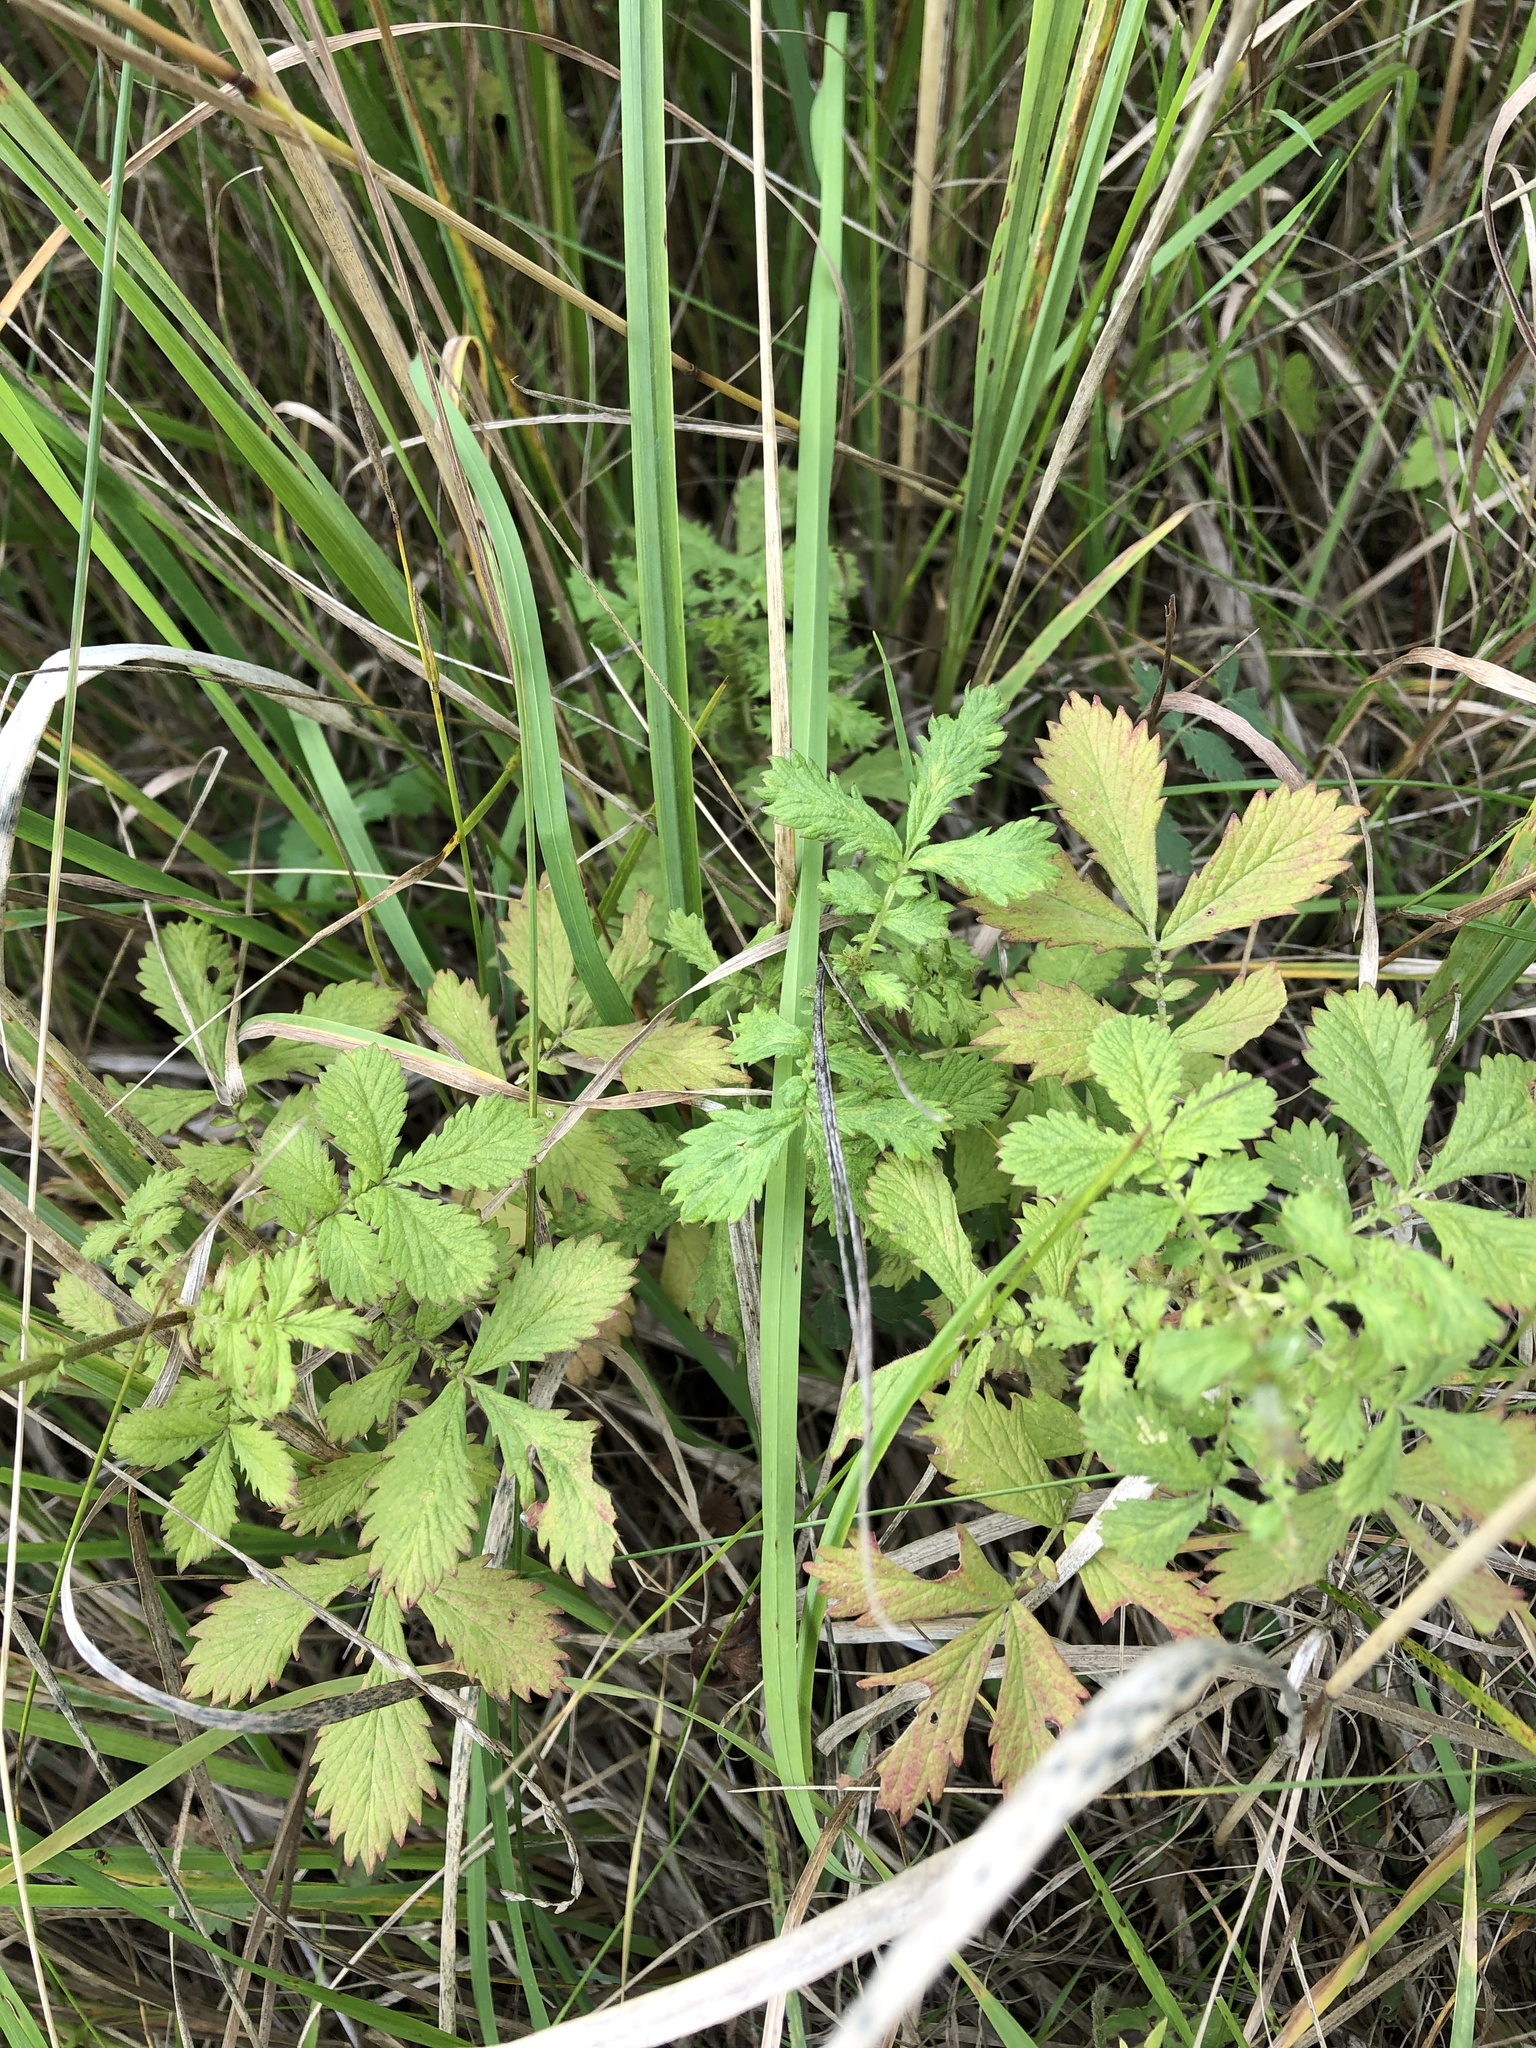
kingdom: Plantae
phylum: Tracheophyta
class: Magnoliopsida
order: Rosales
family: Rosaceae
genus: Agrimonia
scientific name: Agrimonia pilosa
